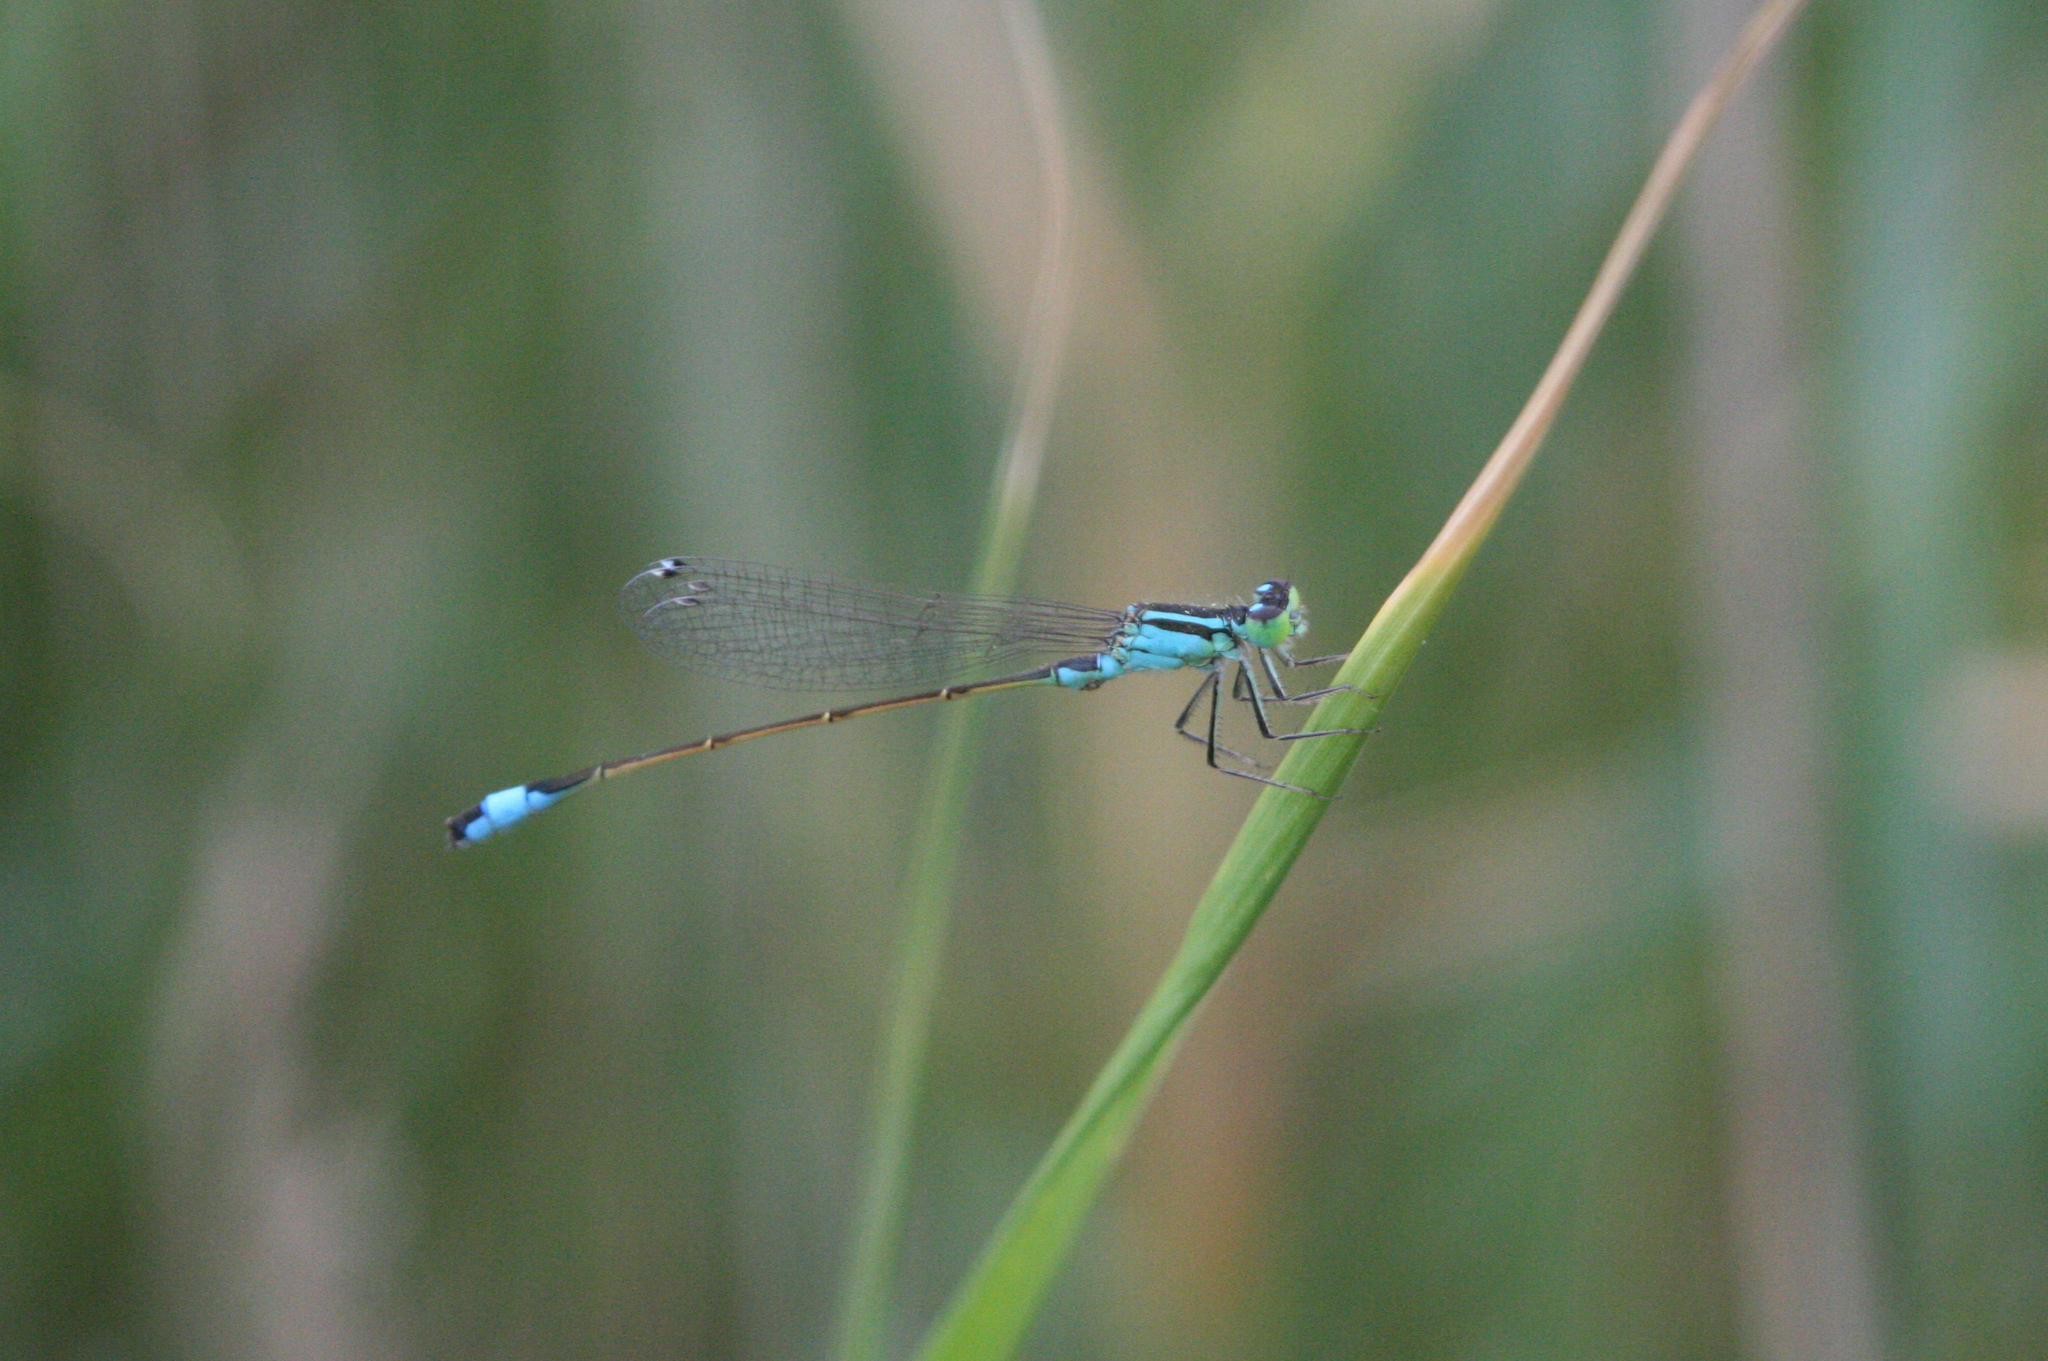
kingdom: Animalia
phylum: Arthropoda
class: Insecta
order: Odonata
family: Coenagrionidae
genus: Ischnura
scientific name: Ischnura elegans
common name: Blue-tailed damselfly
